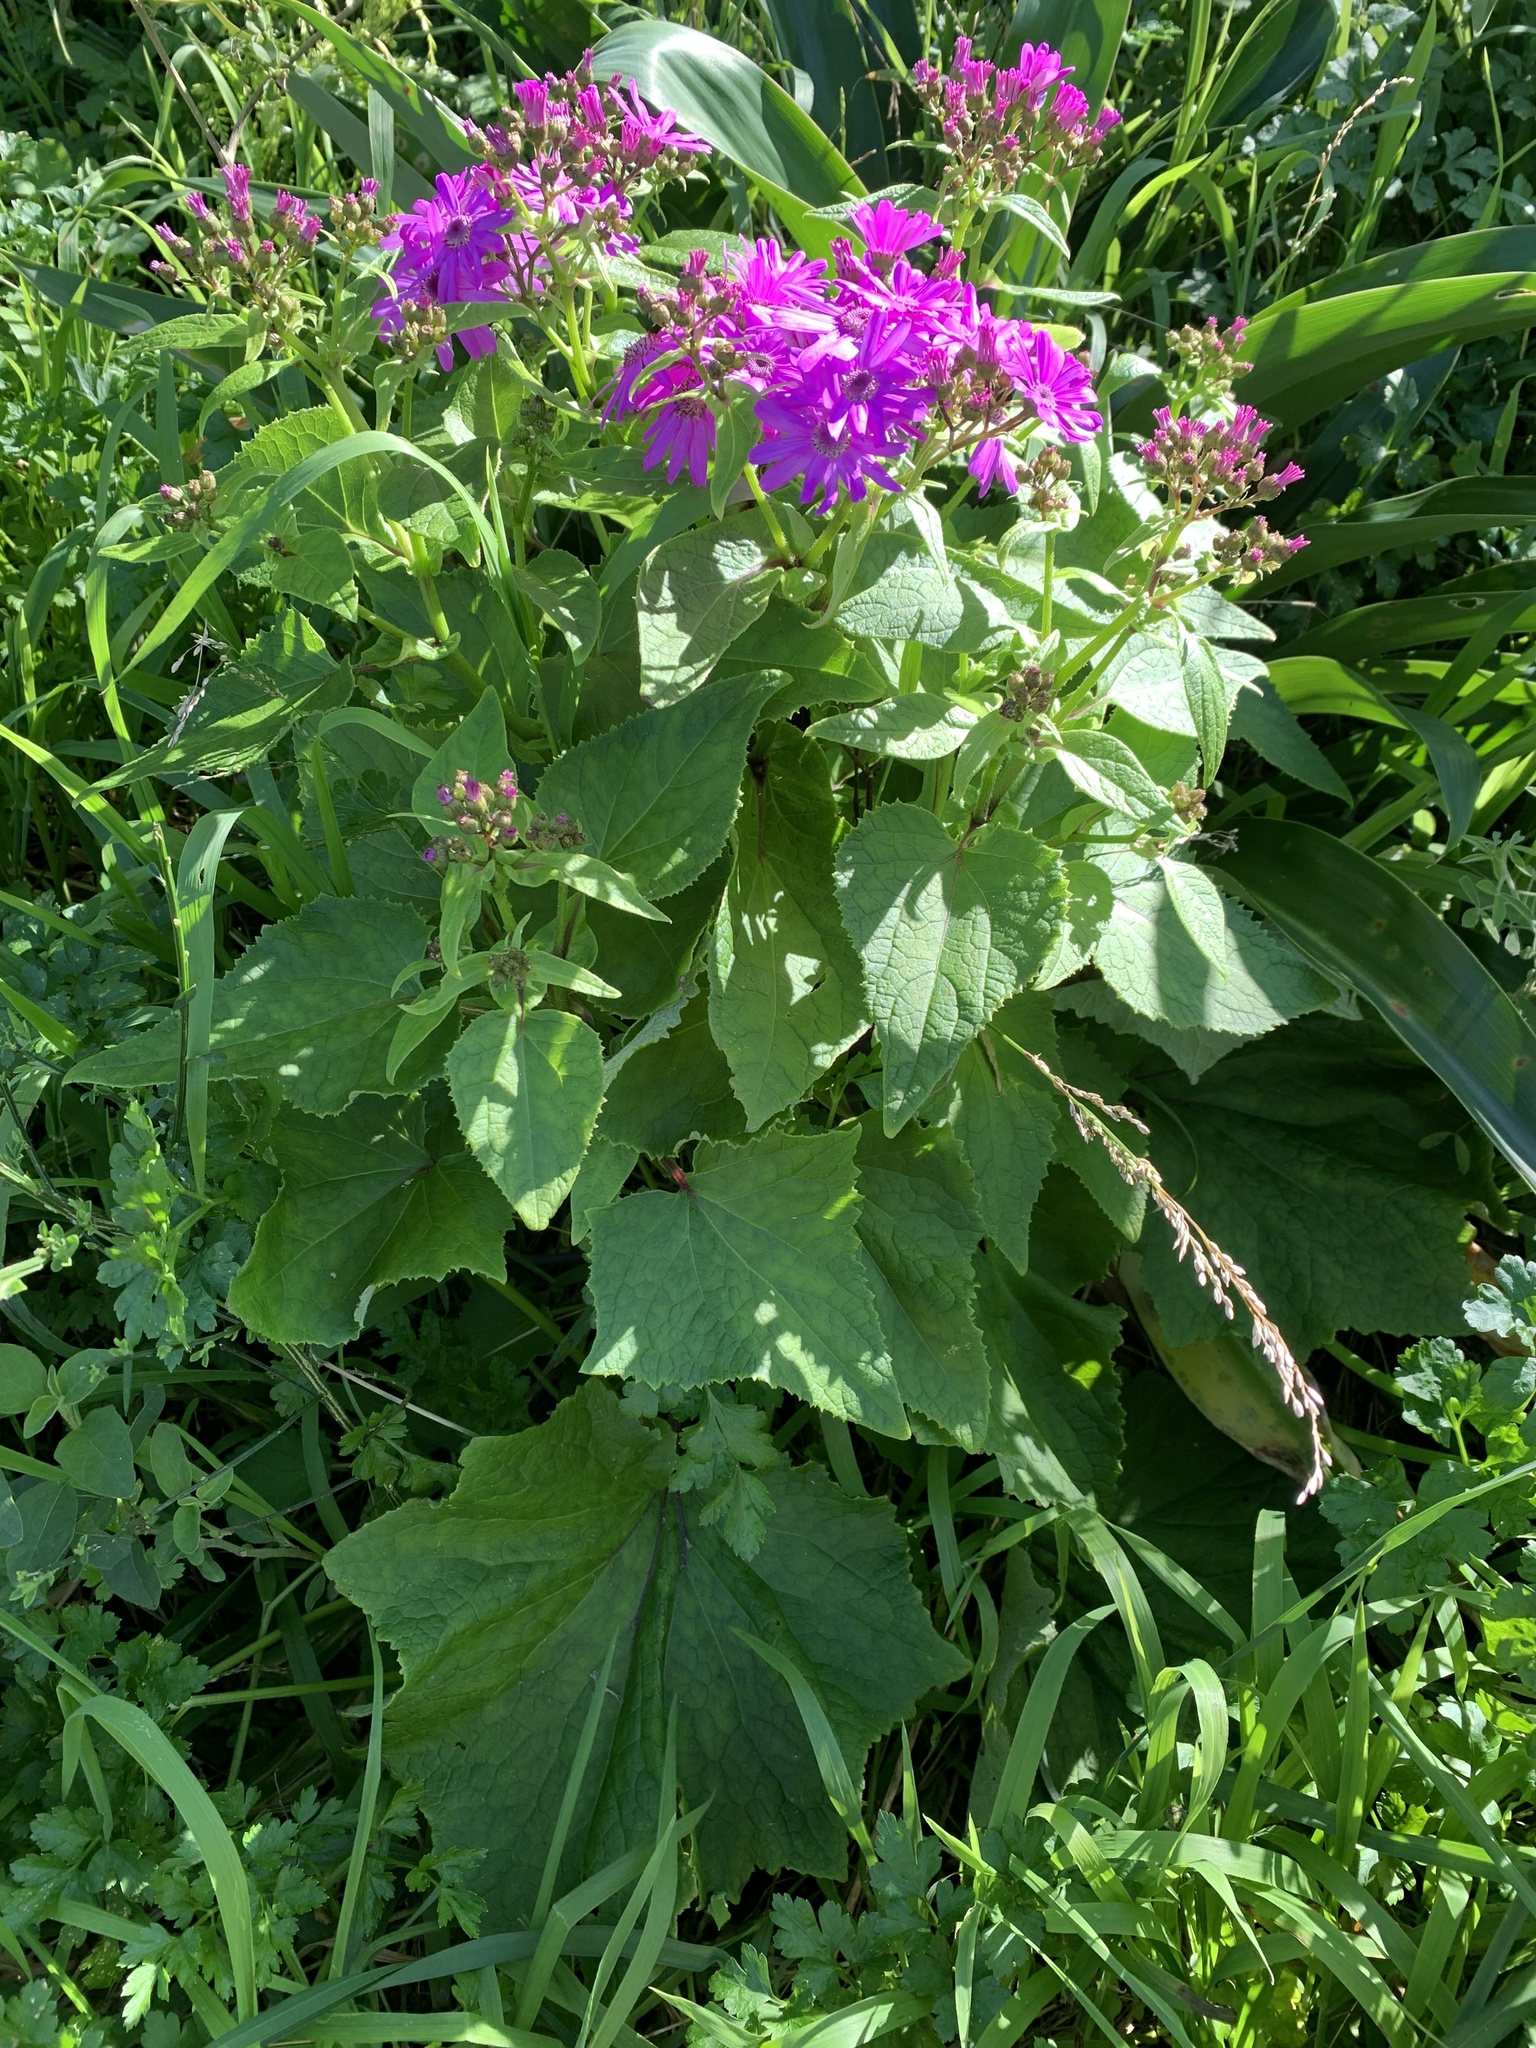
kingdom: Plantae
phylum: Tracheophyta
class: Magnoliopsida
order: Asterales
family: Asteraceae
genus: Pericallis
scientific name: Pericallis hybrida
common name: Cineraria
